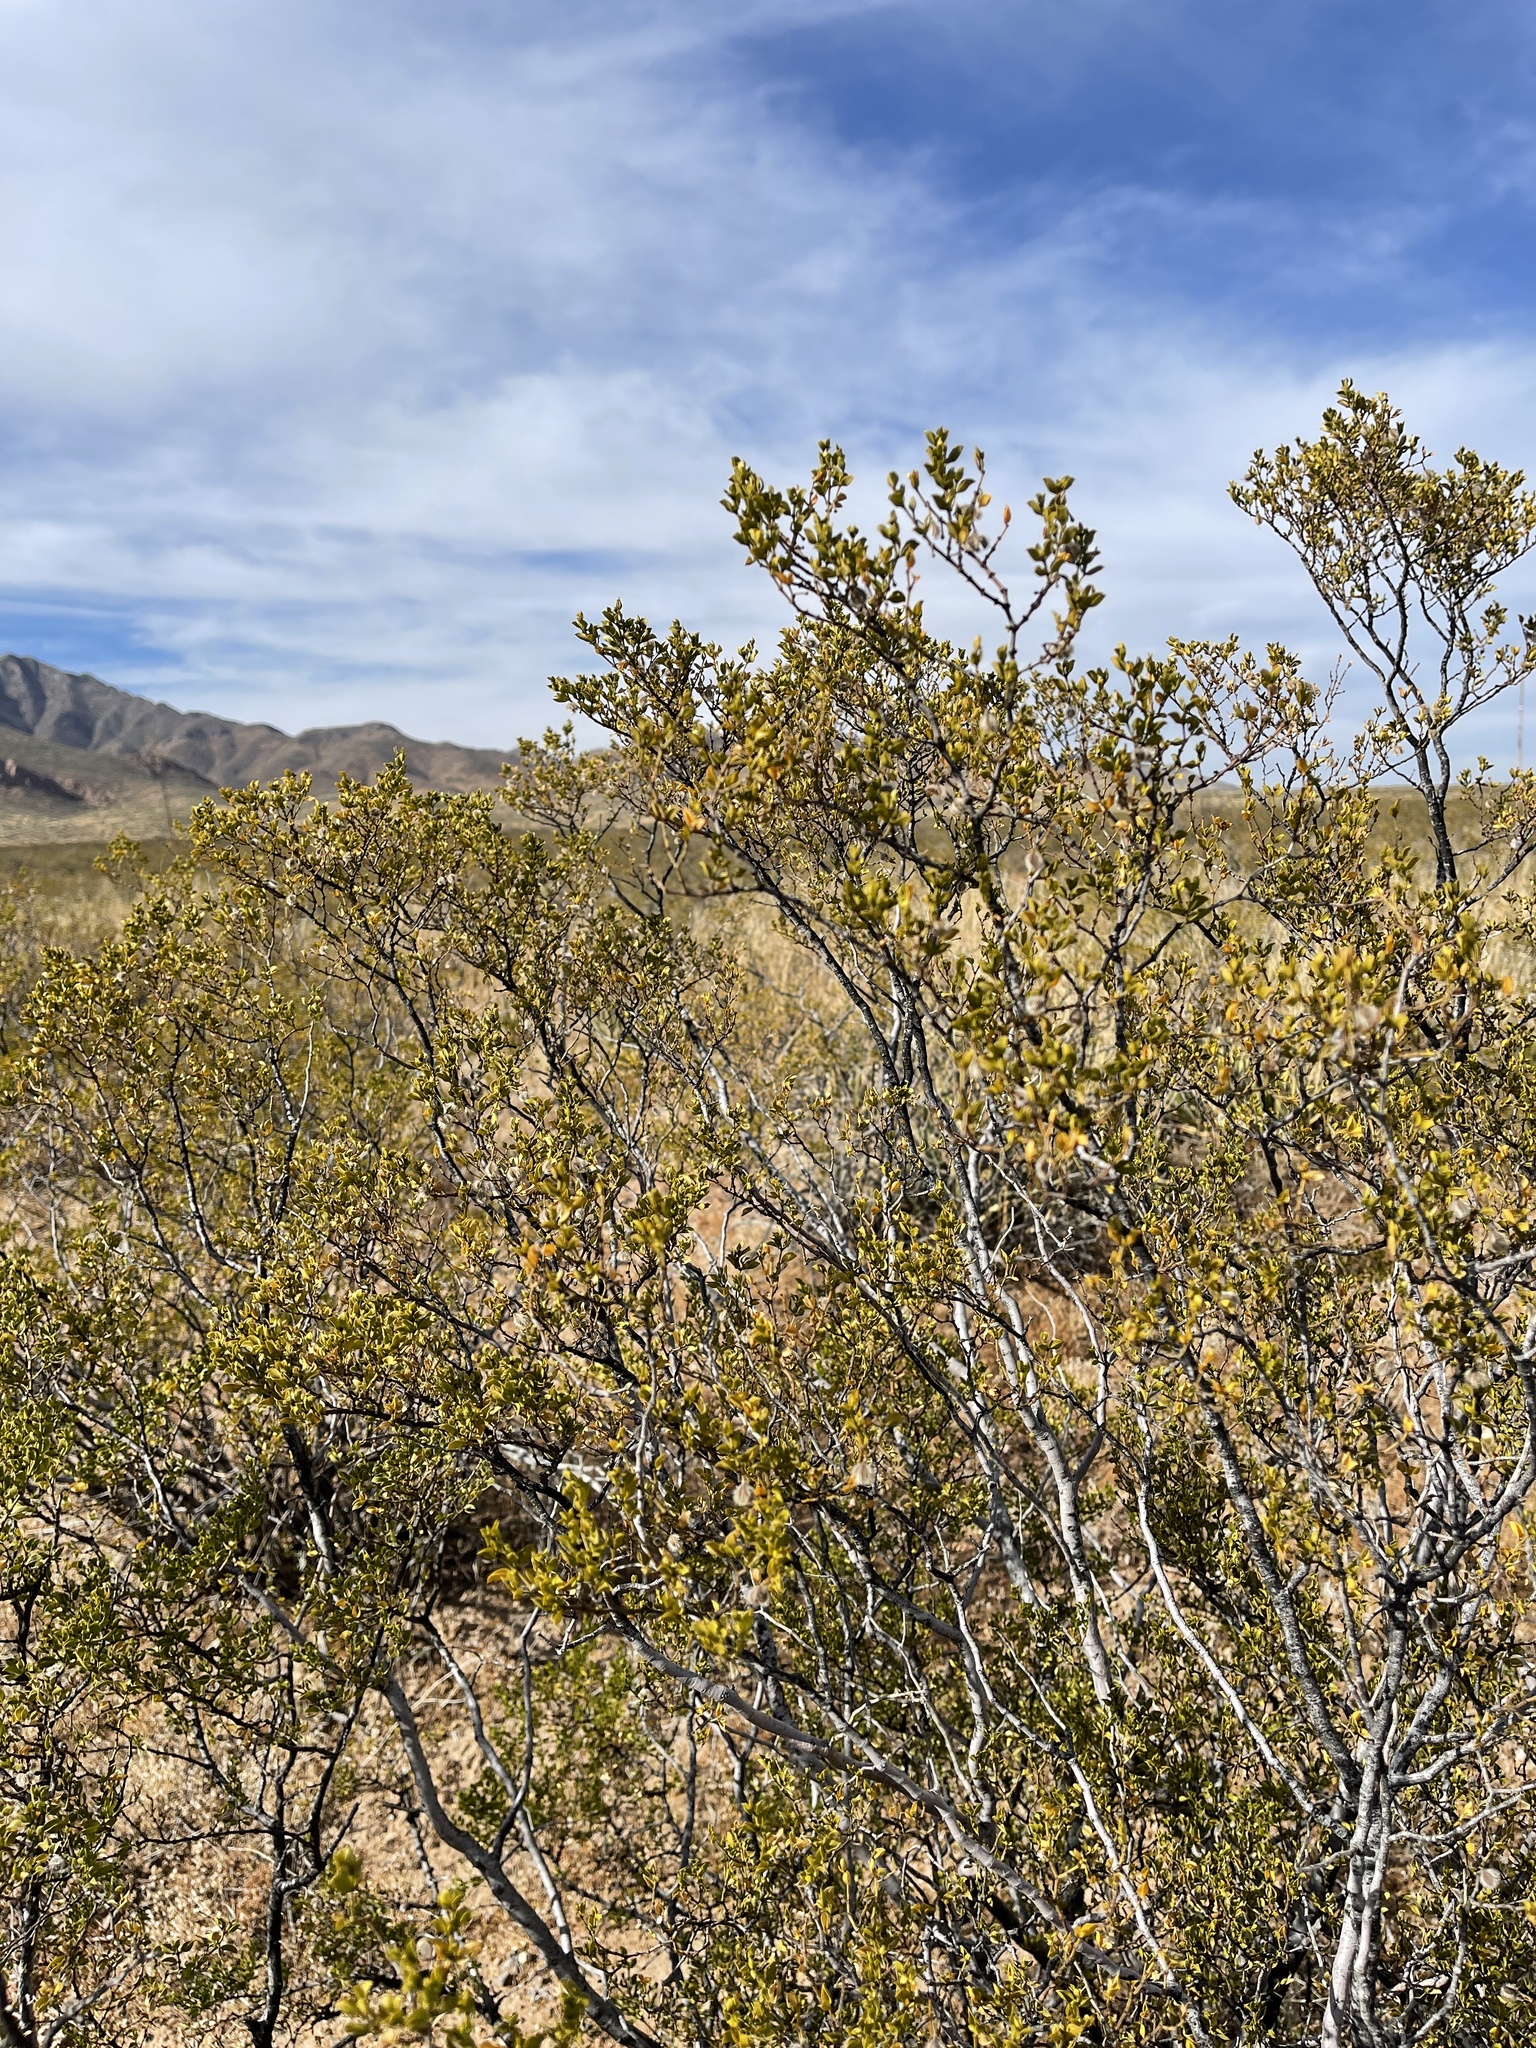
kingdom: Plantae
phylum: Tracheophyta
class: Magnoliopsida
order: Zygophyllales
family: Zygophyllaceae
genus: Larrea
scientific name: Larrea tridentata
